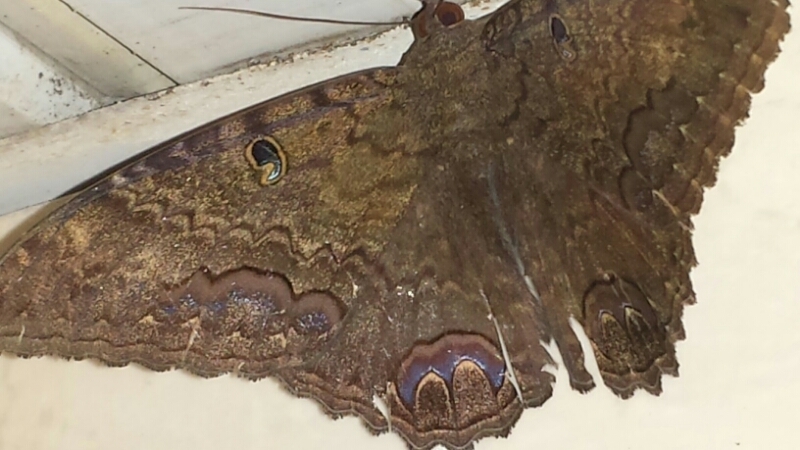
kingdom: Animalia
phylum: Arthropoda
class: Insecta
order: Lepidoptera
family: Erebidae
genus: Ascalapha
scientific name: Ascalapha odorata
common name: Black witch
